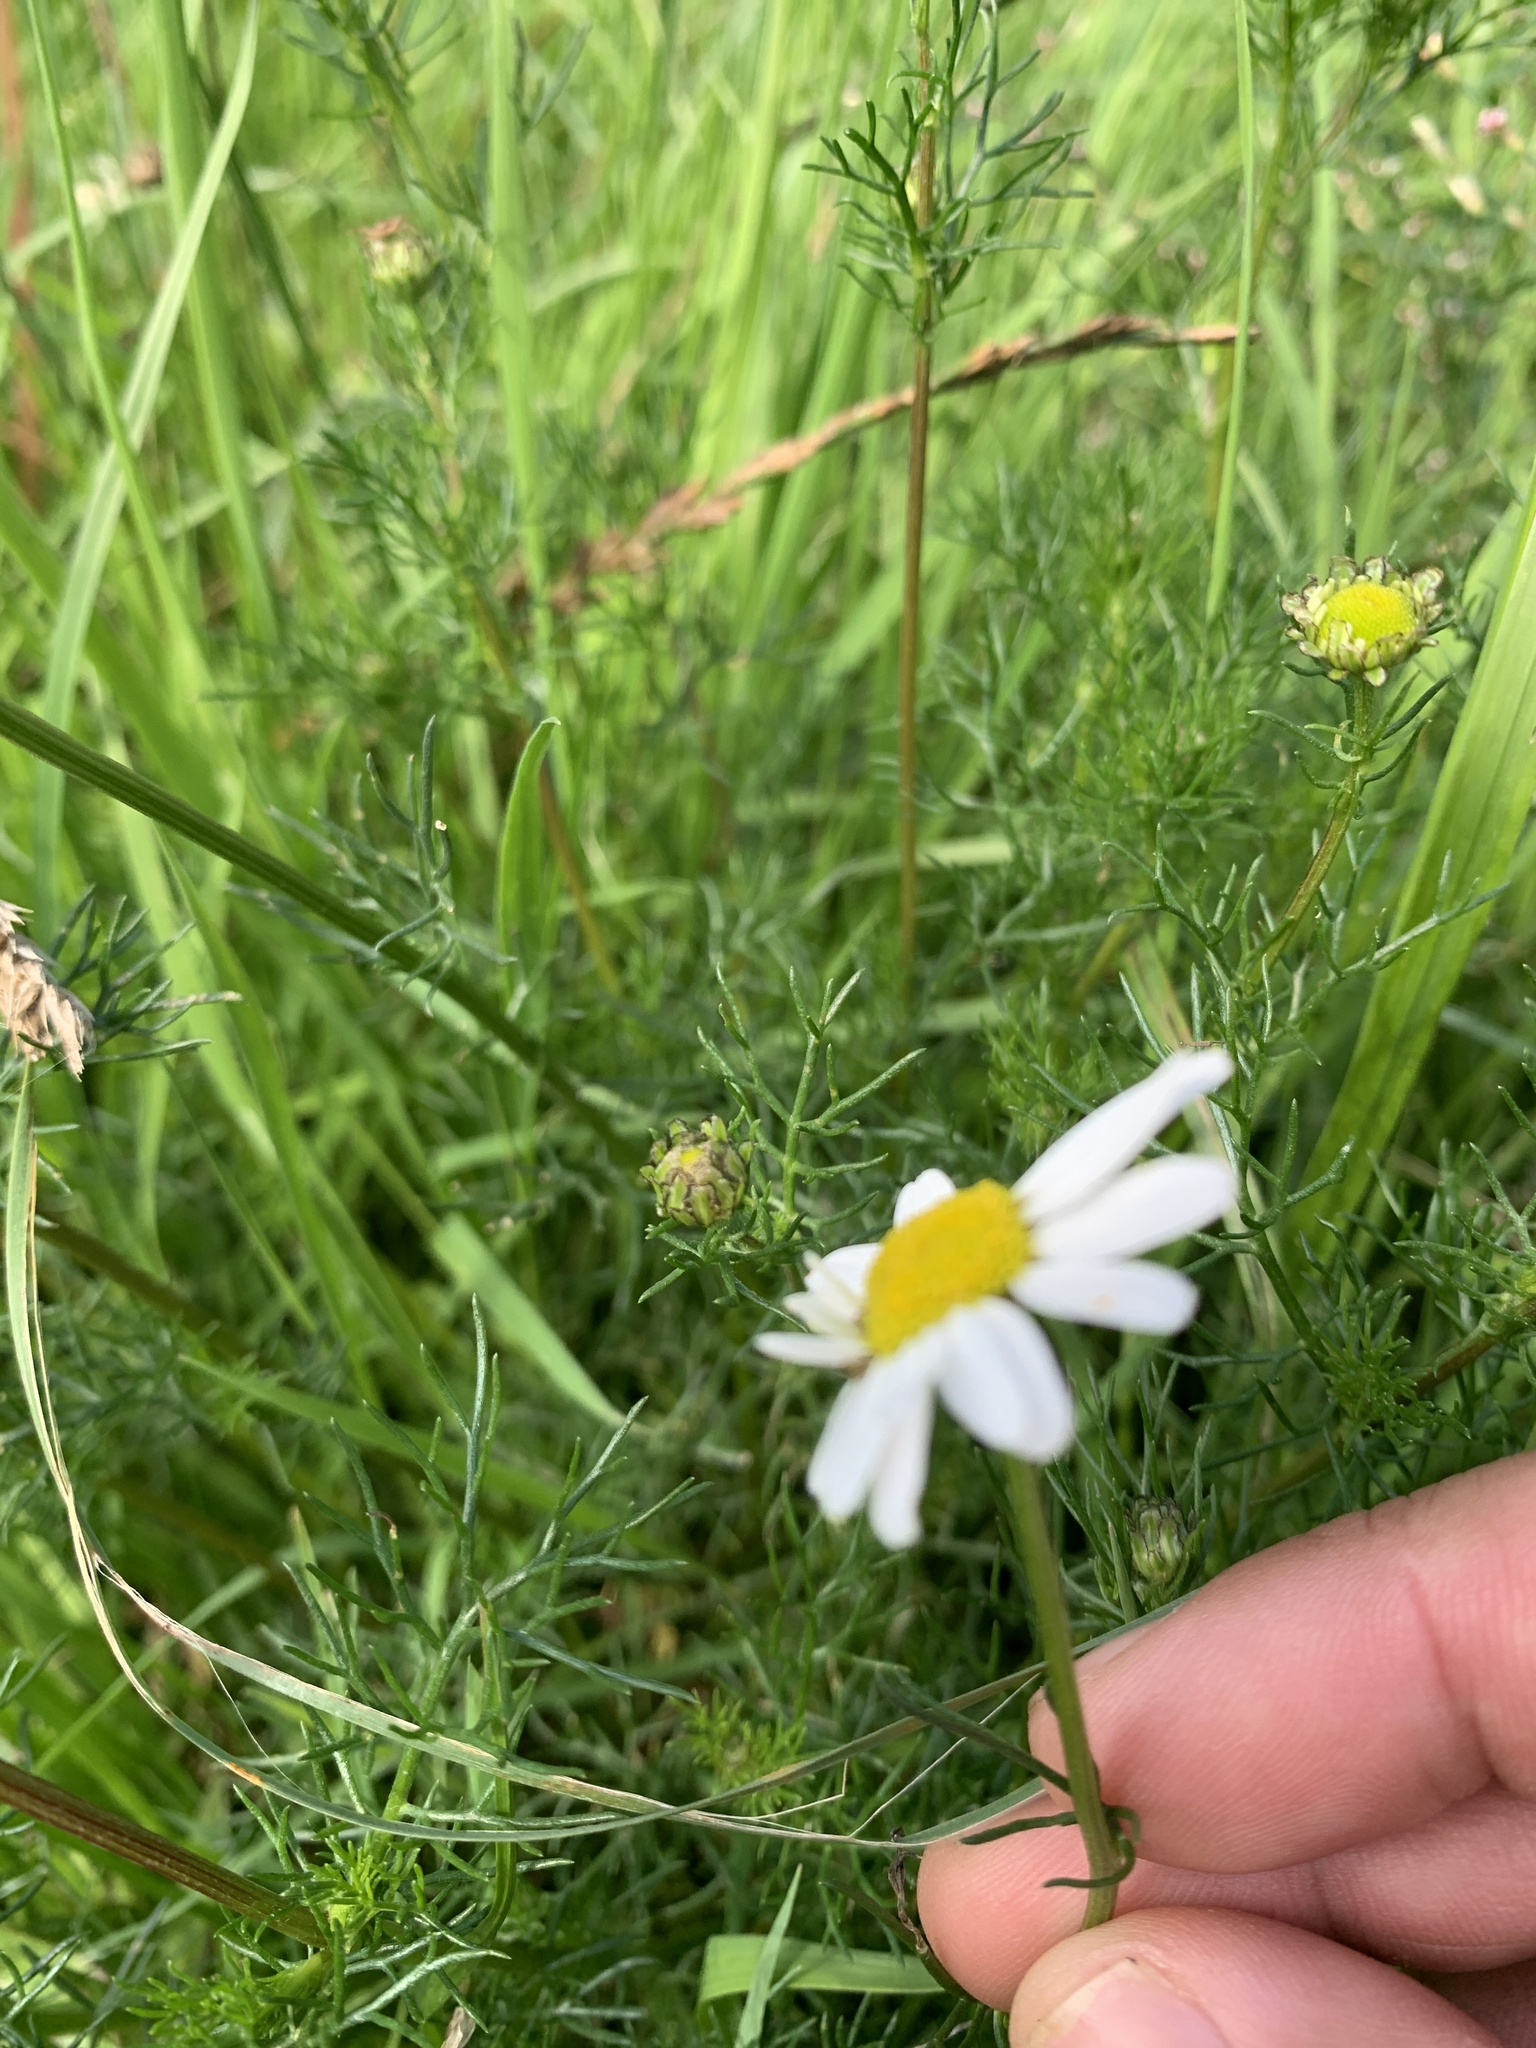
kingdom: Plantae
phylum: Tracheophyta
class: Magnoliopsida
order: Asterales
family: Asteraceae
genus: Tripleurospermum
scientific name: Tripleurospermum inodorum
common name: Scentless mayweed
